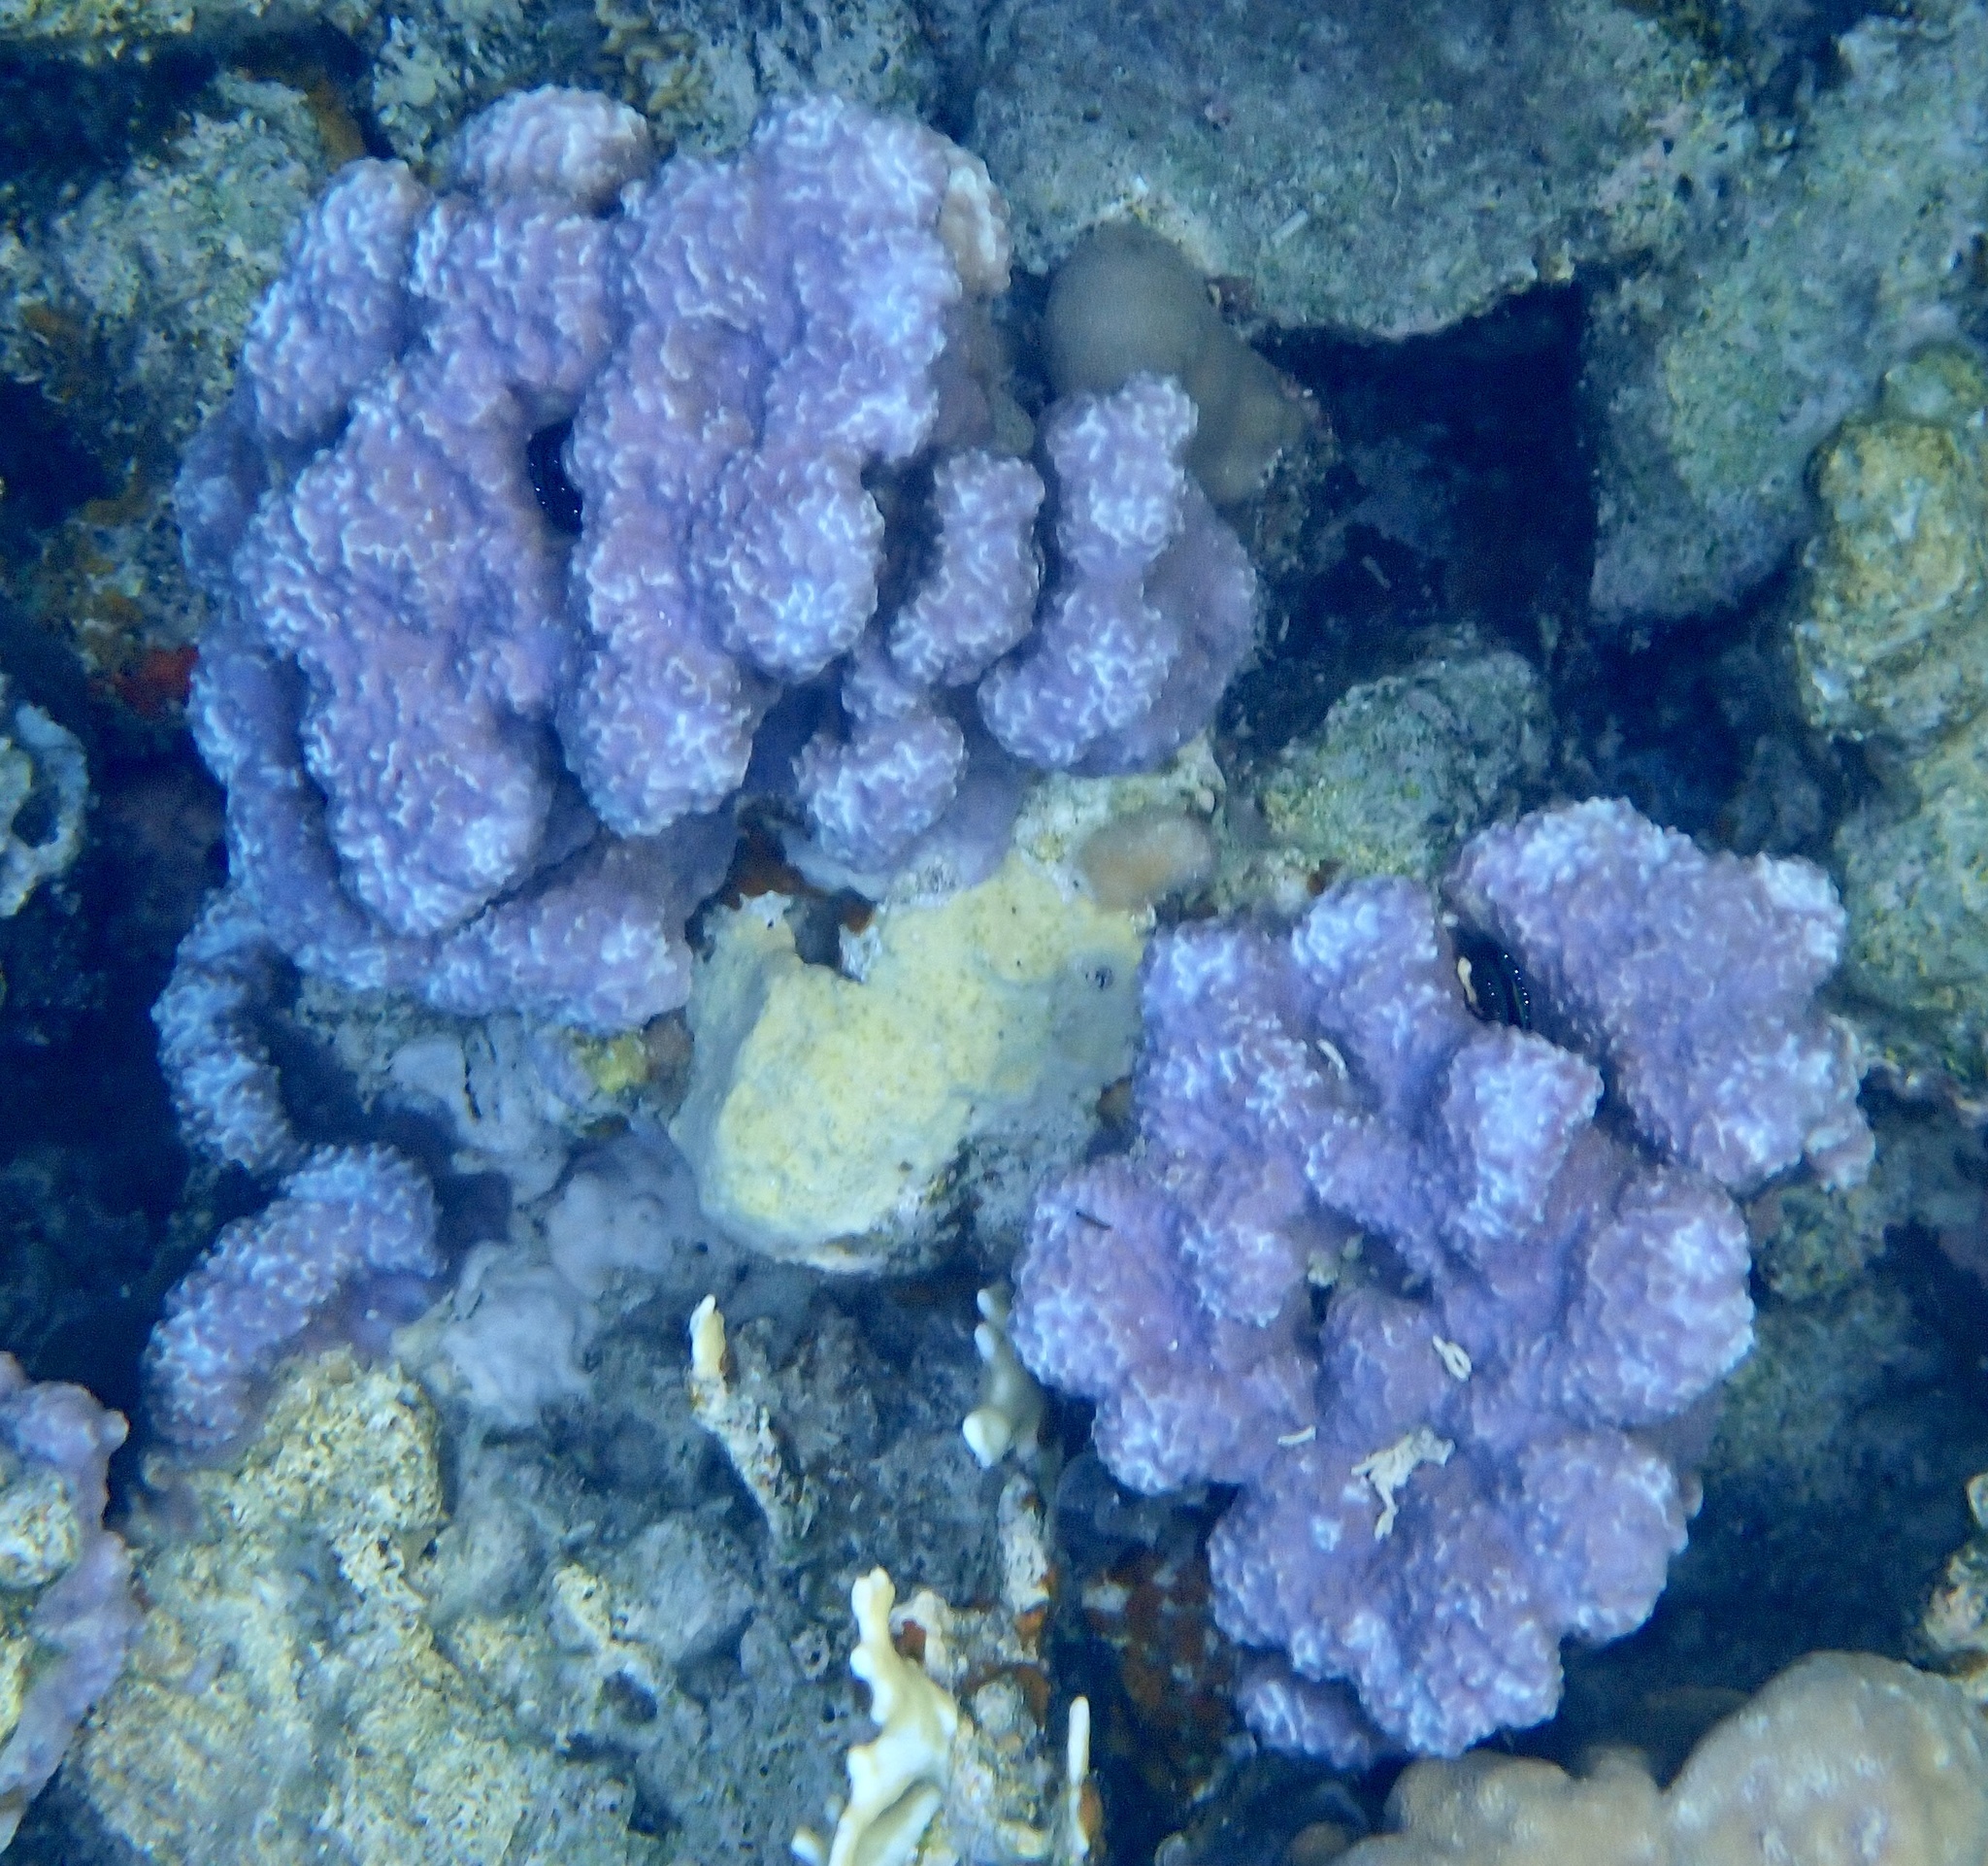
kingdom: Animalia
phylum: Cnidaria
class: Anthozoa
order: Scleractinia
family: Poritidae
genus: Porites
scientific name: Porites rus
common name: Hump coral
